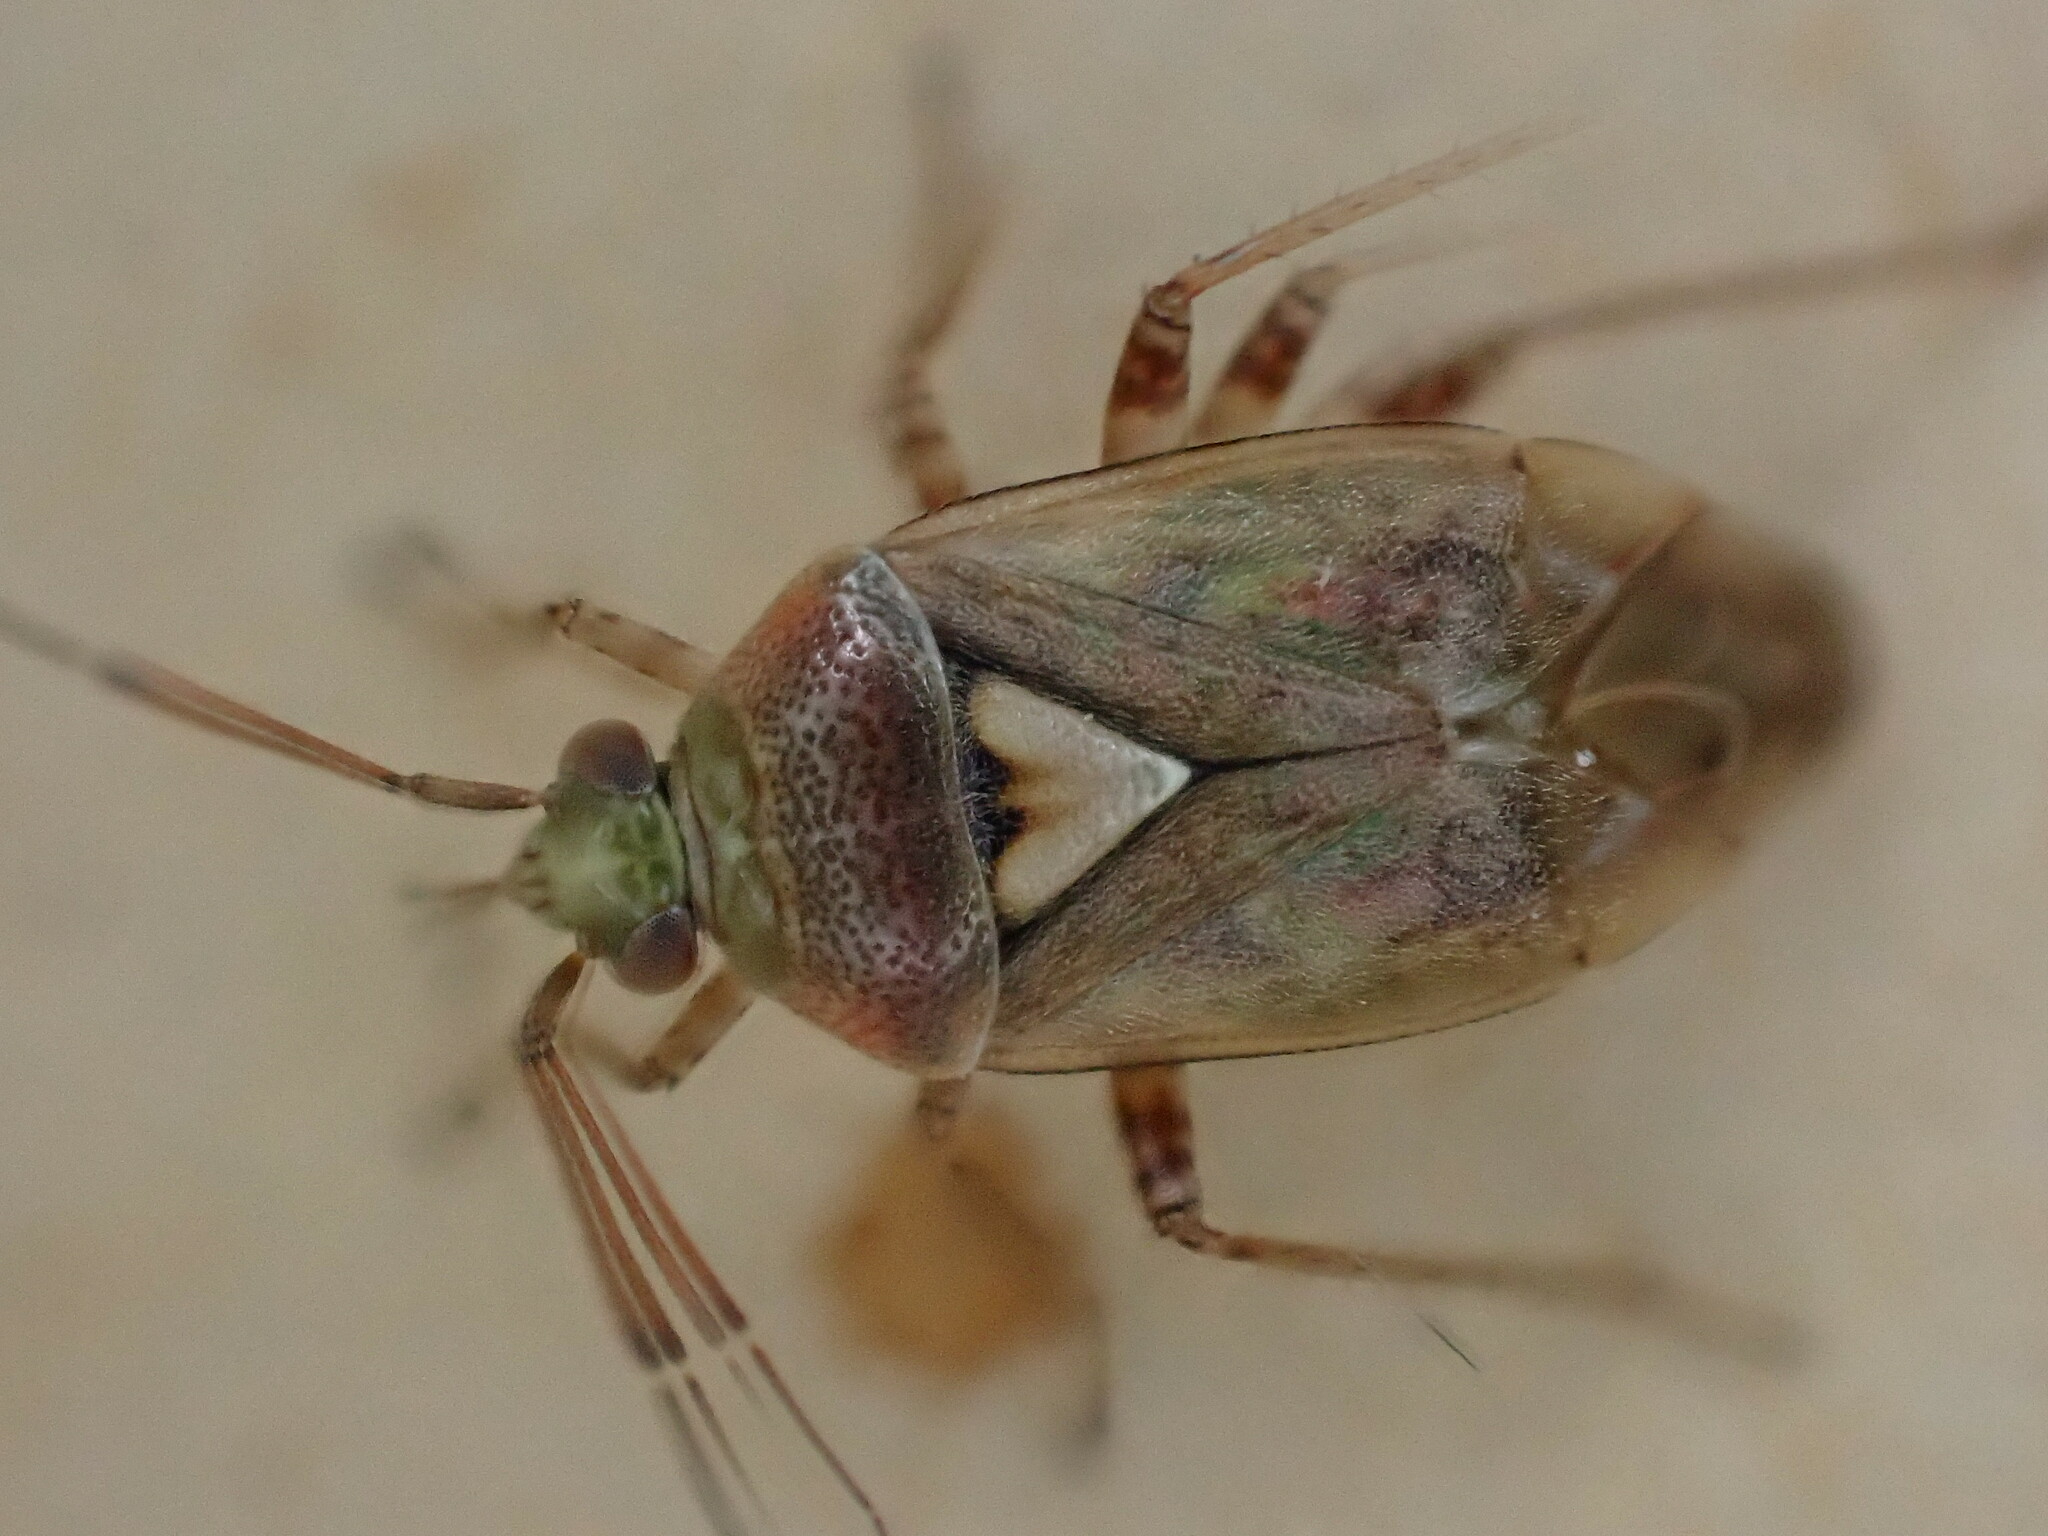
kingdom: Animalia
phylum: Arthropoda
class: Insecta
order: Hemiptera
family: Miridae
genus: Lygus
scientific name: Lygus rugulipennis
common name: European tarnished plant bug
